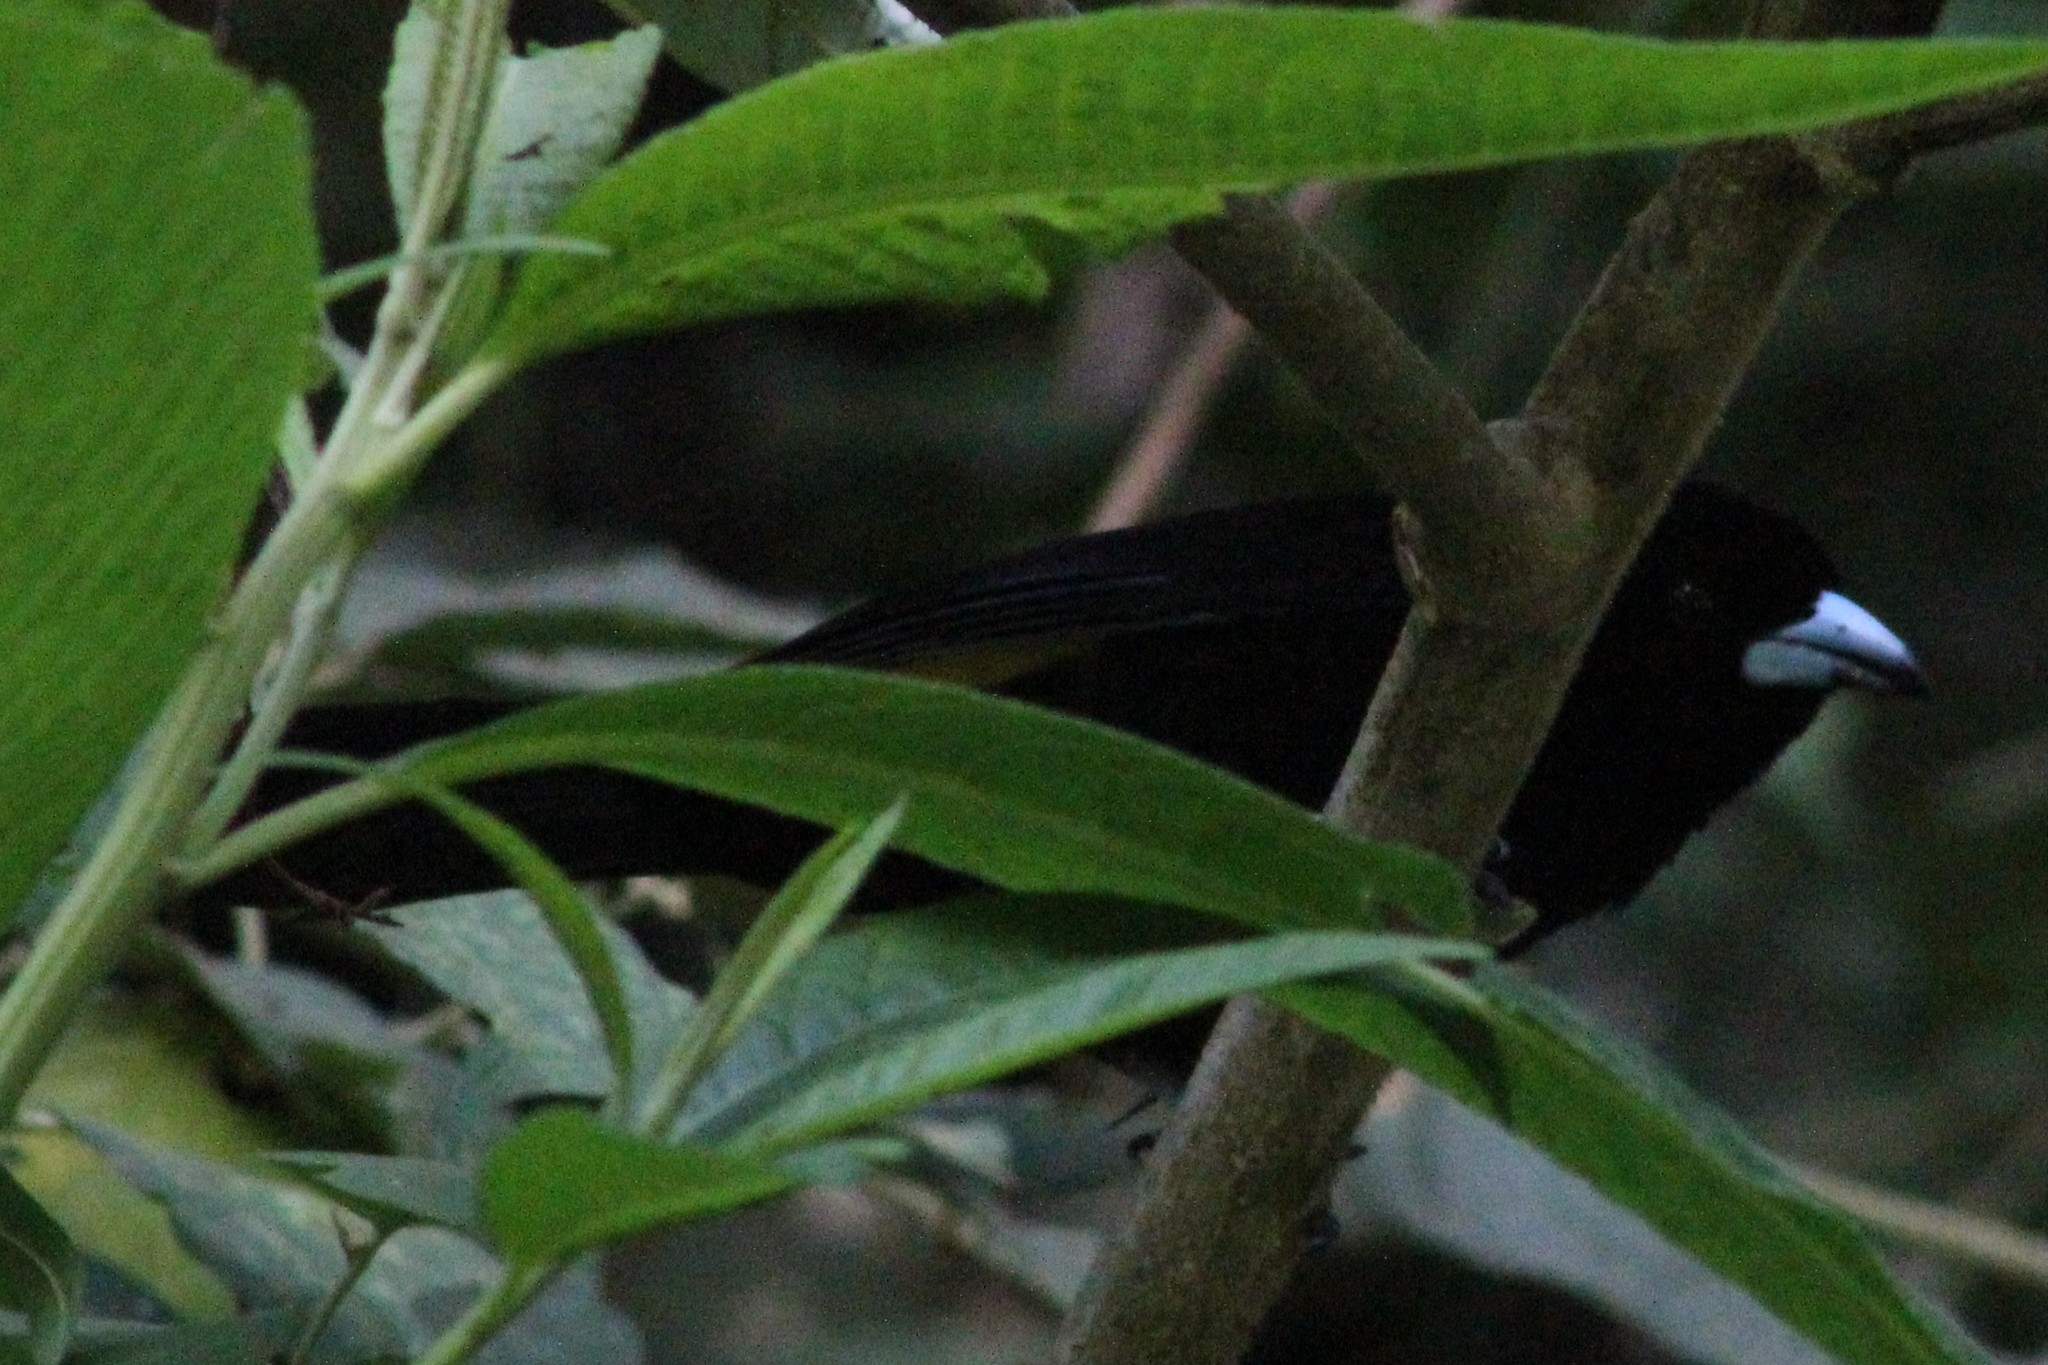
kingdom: Animalia
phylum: Chordata
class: Aves
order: Passeriformes
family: Thraupidae
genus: Ramphocelus
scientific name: Ramphocelus icteronotus
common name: Lemon-rumped tanager
